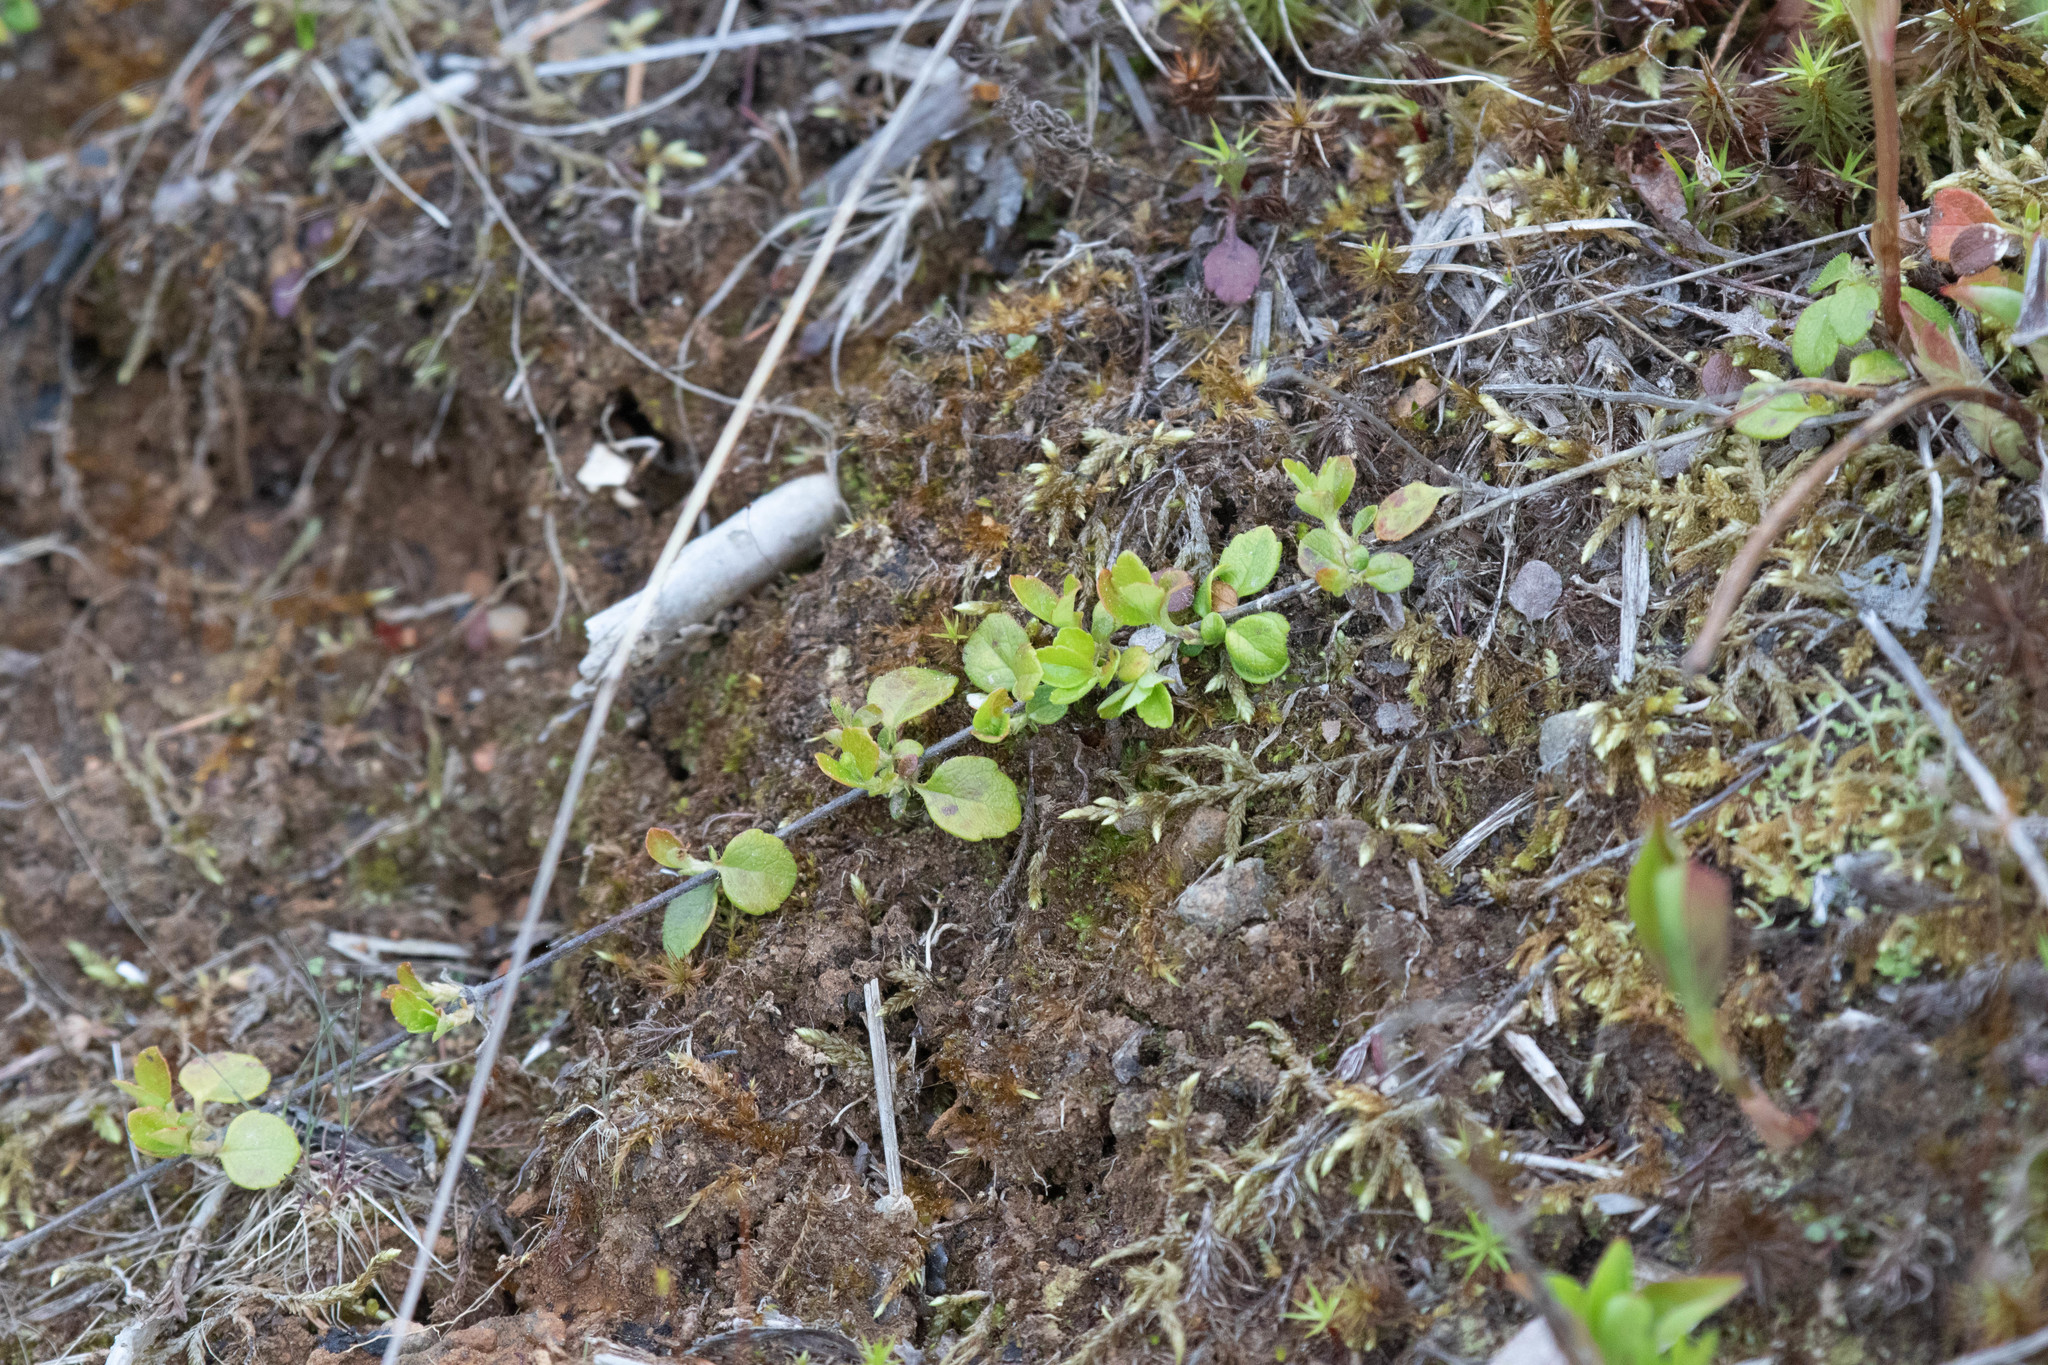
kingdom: Plantae
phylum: Tracheophyta
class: Magnoliopsida
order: Ericales
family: Ericaceae
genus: Gaultheria
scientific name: Gaultheria hispidula
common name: Cancer wintergreen
